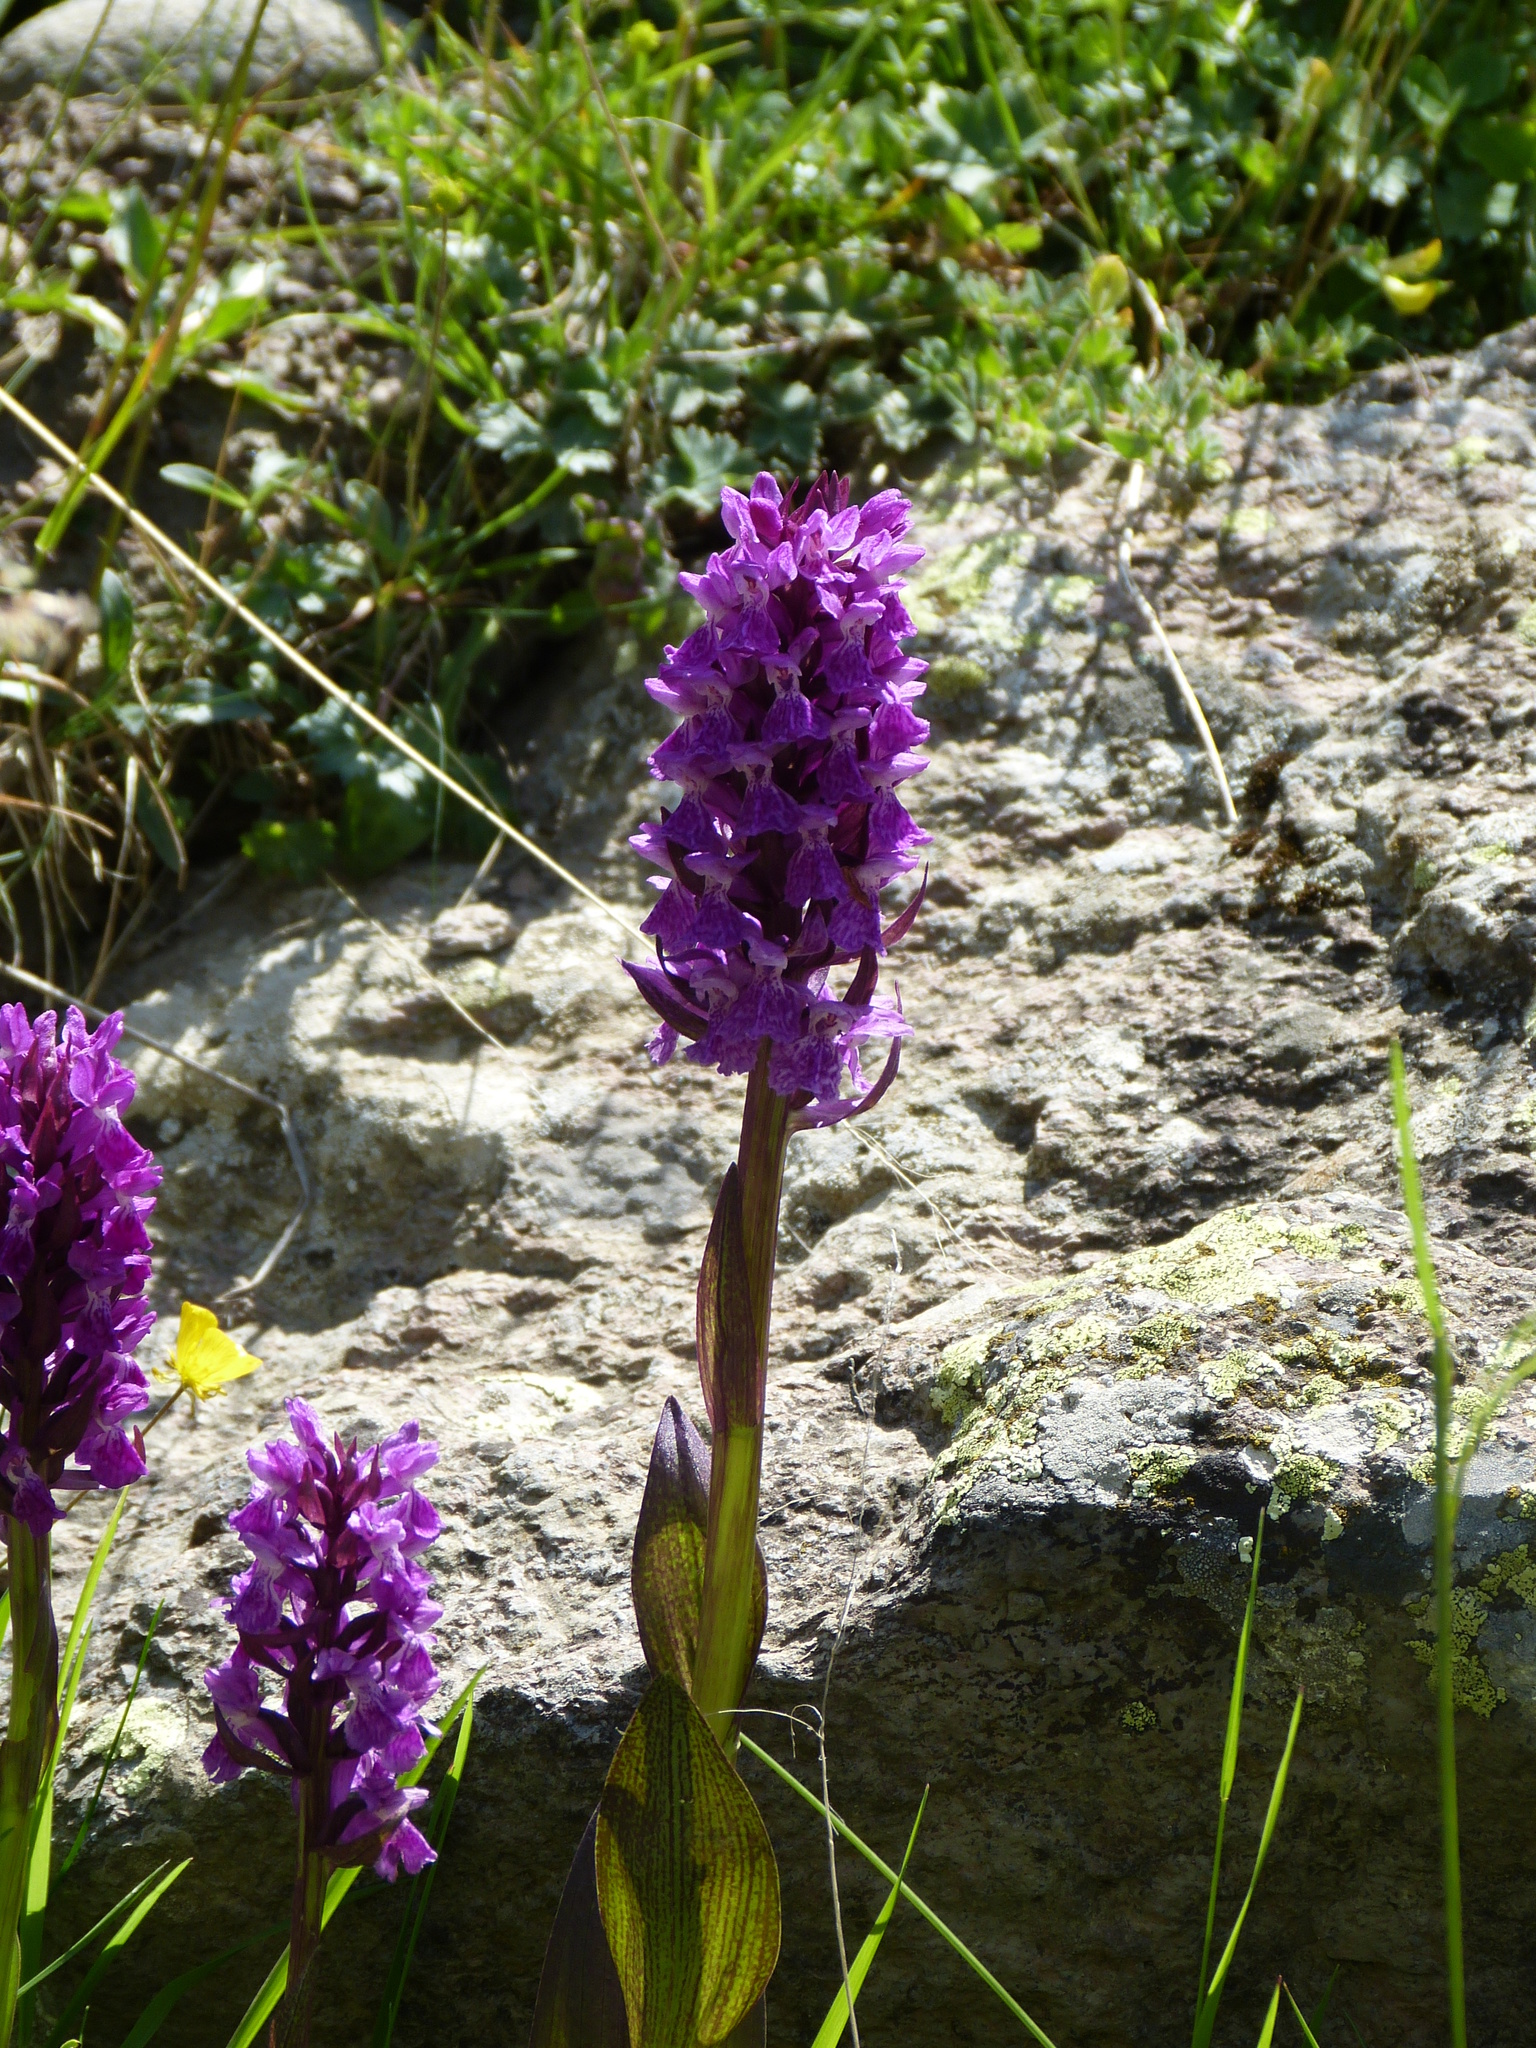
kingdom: Plantae
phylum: Tracheophyta
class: Liliopsida
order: Asparagales
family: Orchidaceae
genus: Dactylorhiza
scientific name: Dactylorhiza euxina
